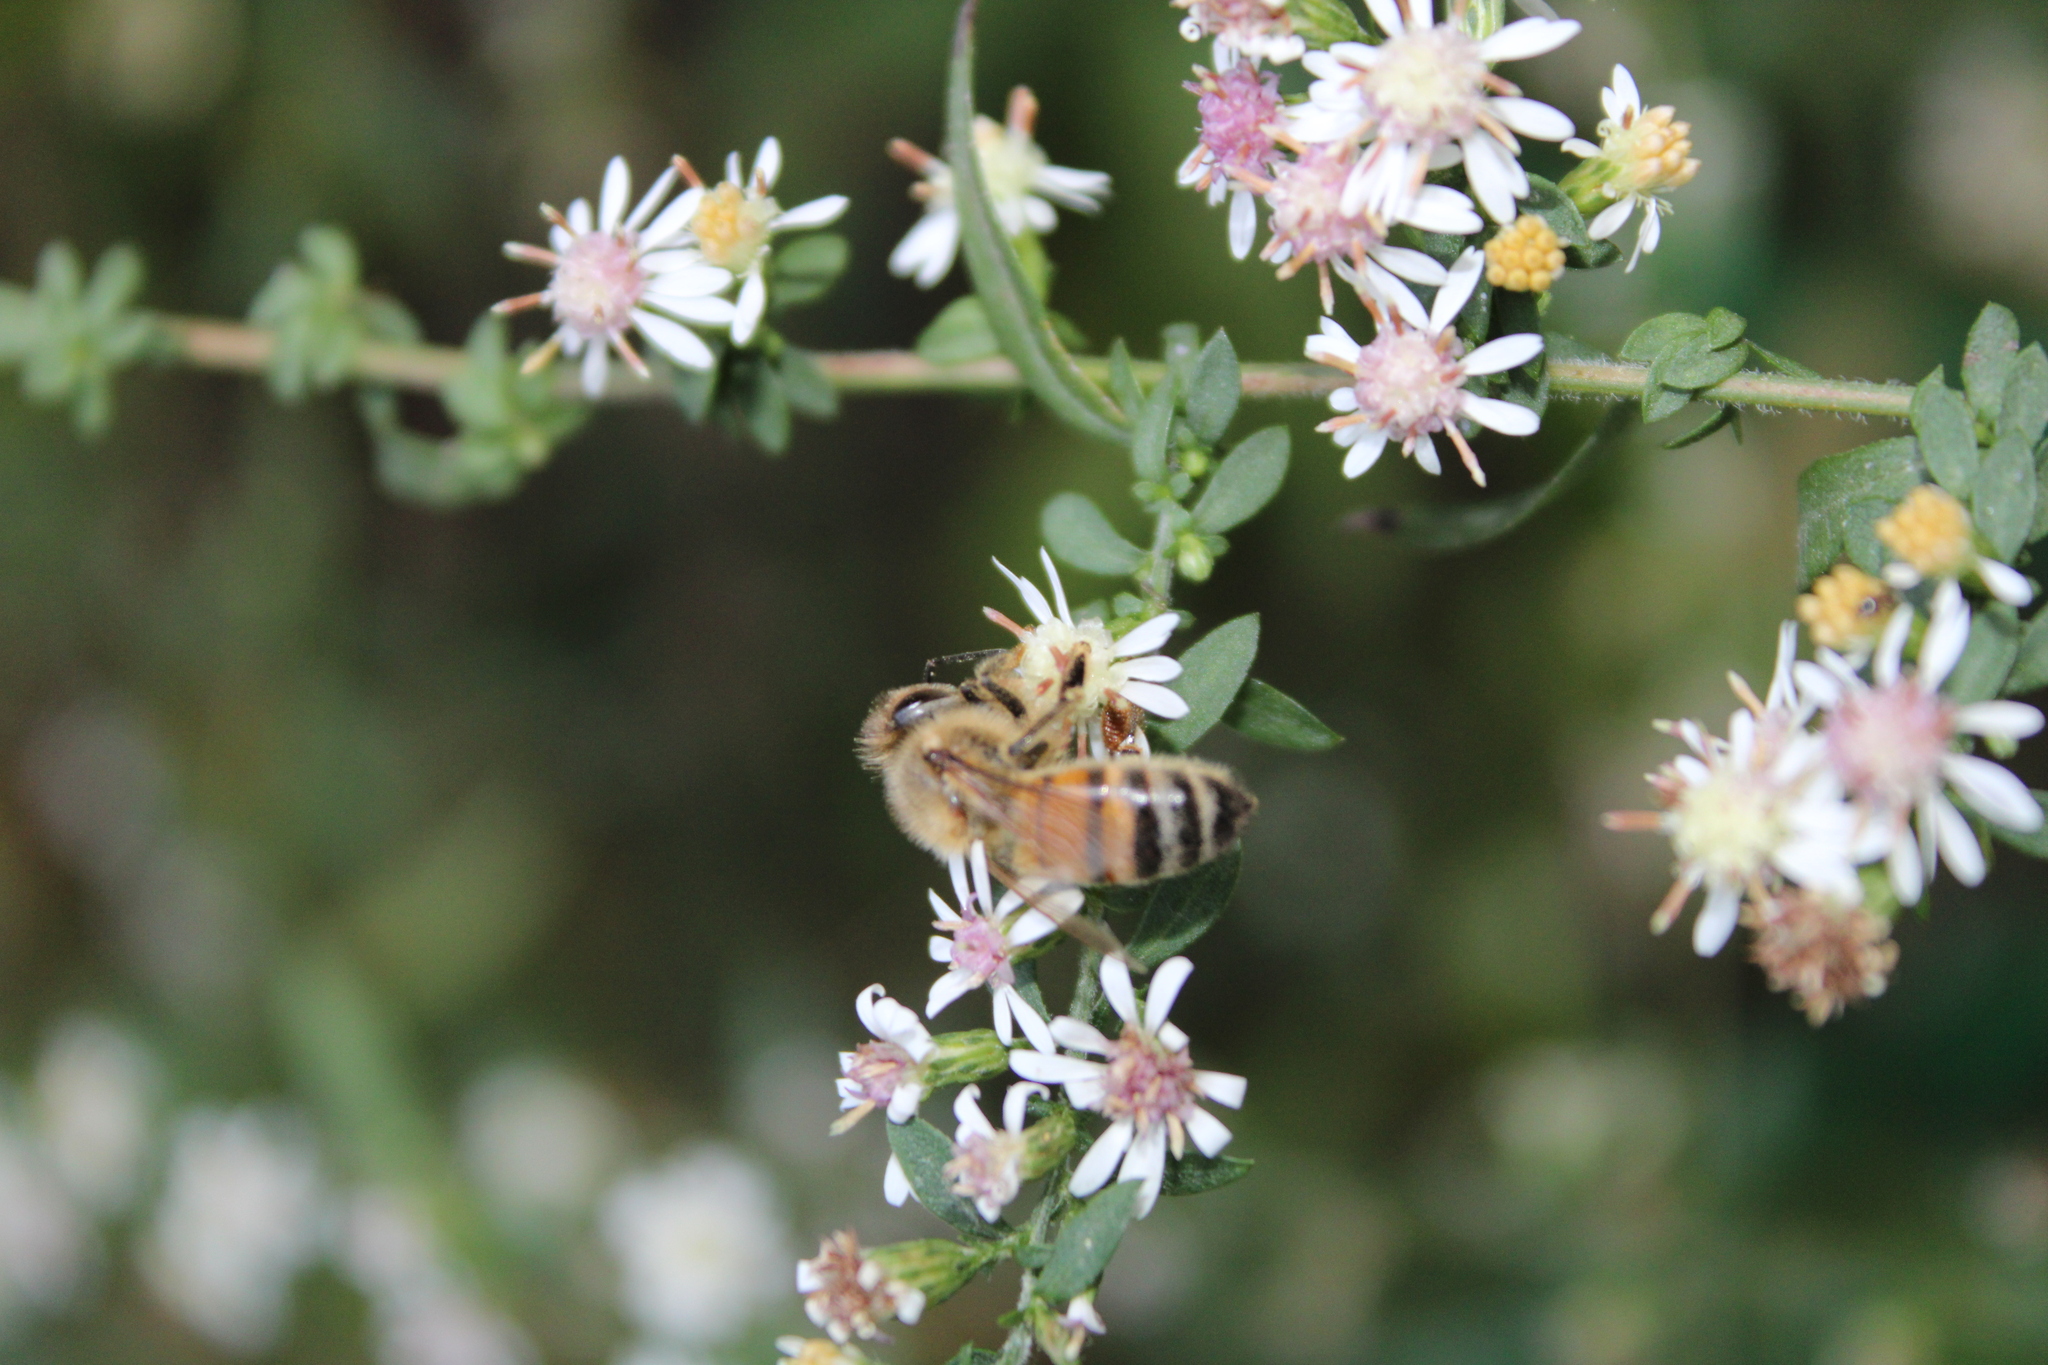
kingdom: Animalia
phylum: Arthropoda
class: Insecta
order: Hymenoptera
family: Apidae
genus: Apis
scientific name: Apis mellifera
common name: Honey bee
